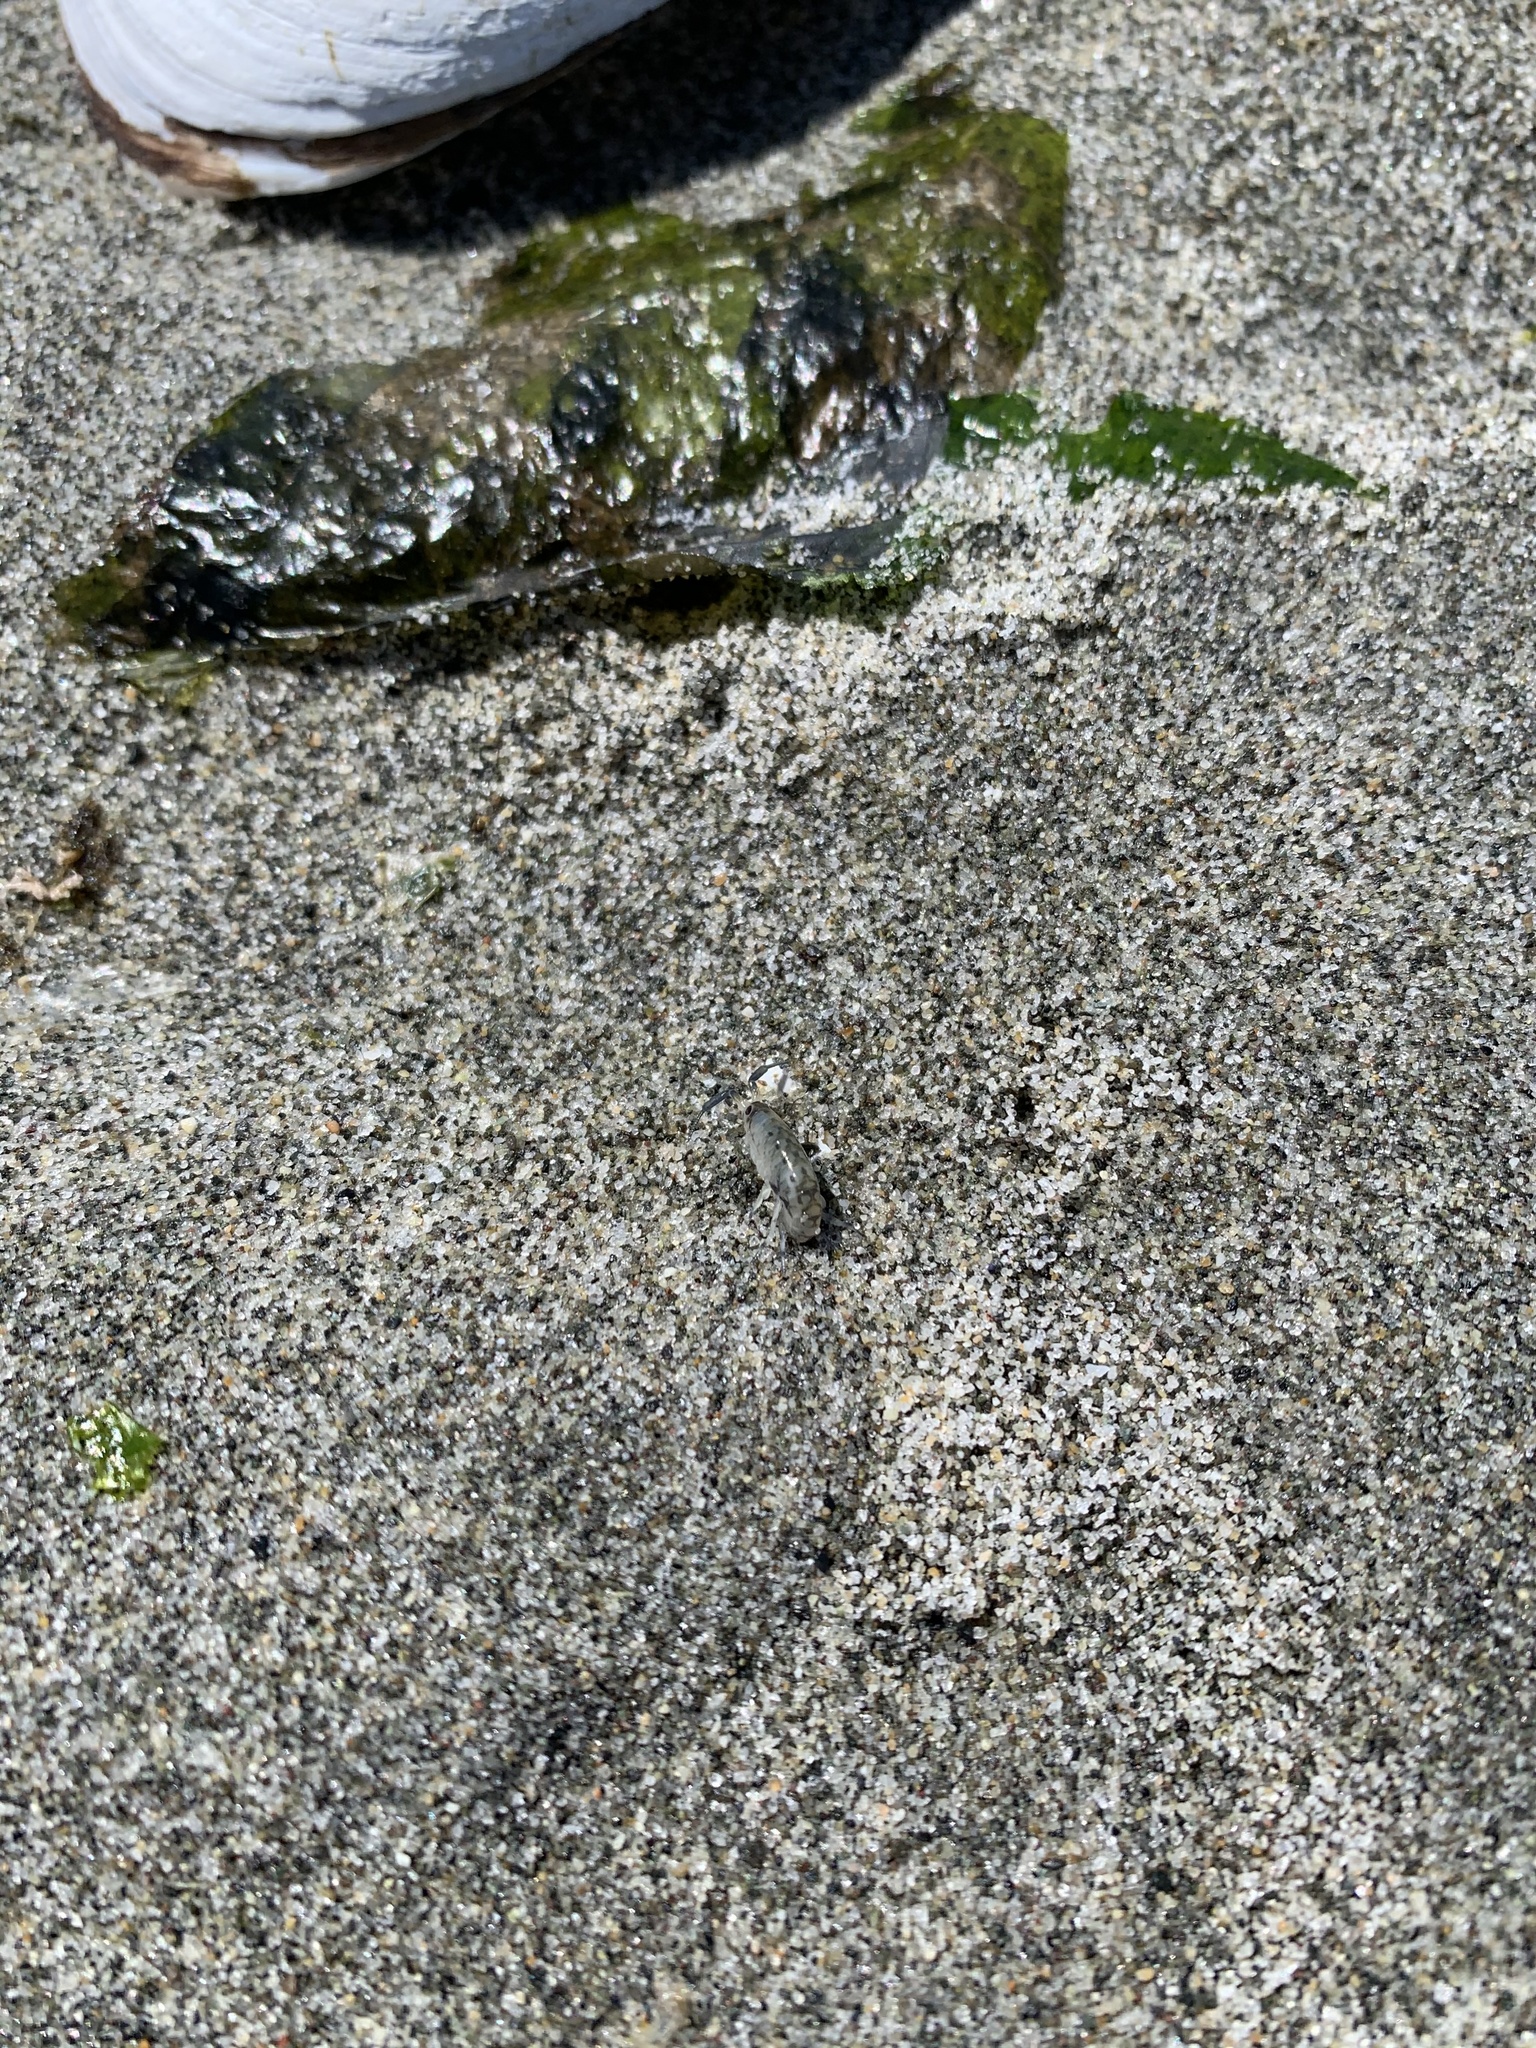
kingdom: Animalia
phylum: Arthropoda
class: Malacostraca
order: Amphipoda
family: Talitridae
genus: Megalorchestia
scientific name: Megalorchestia pugettensis
